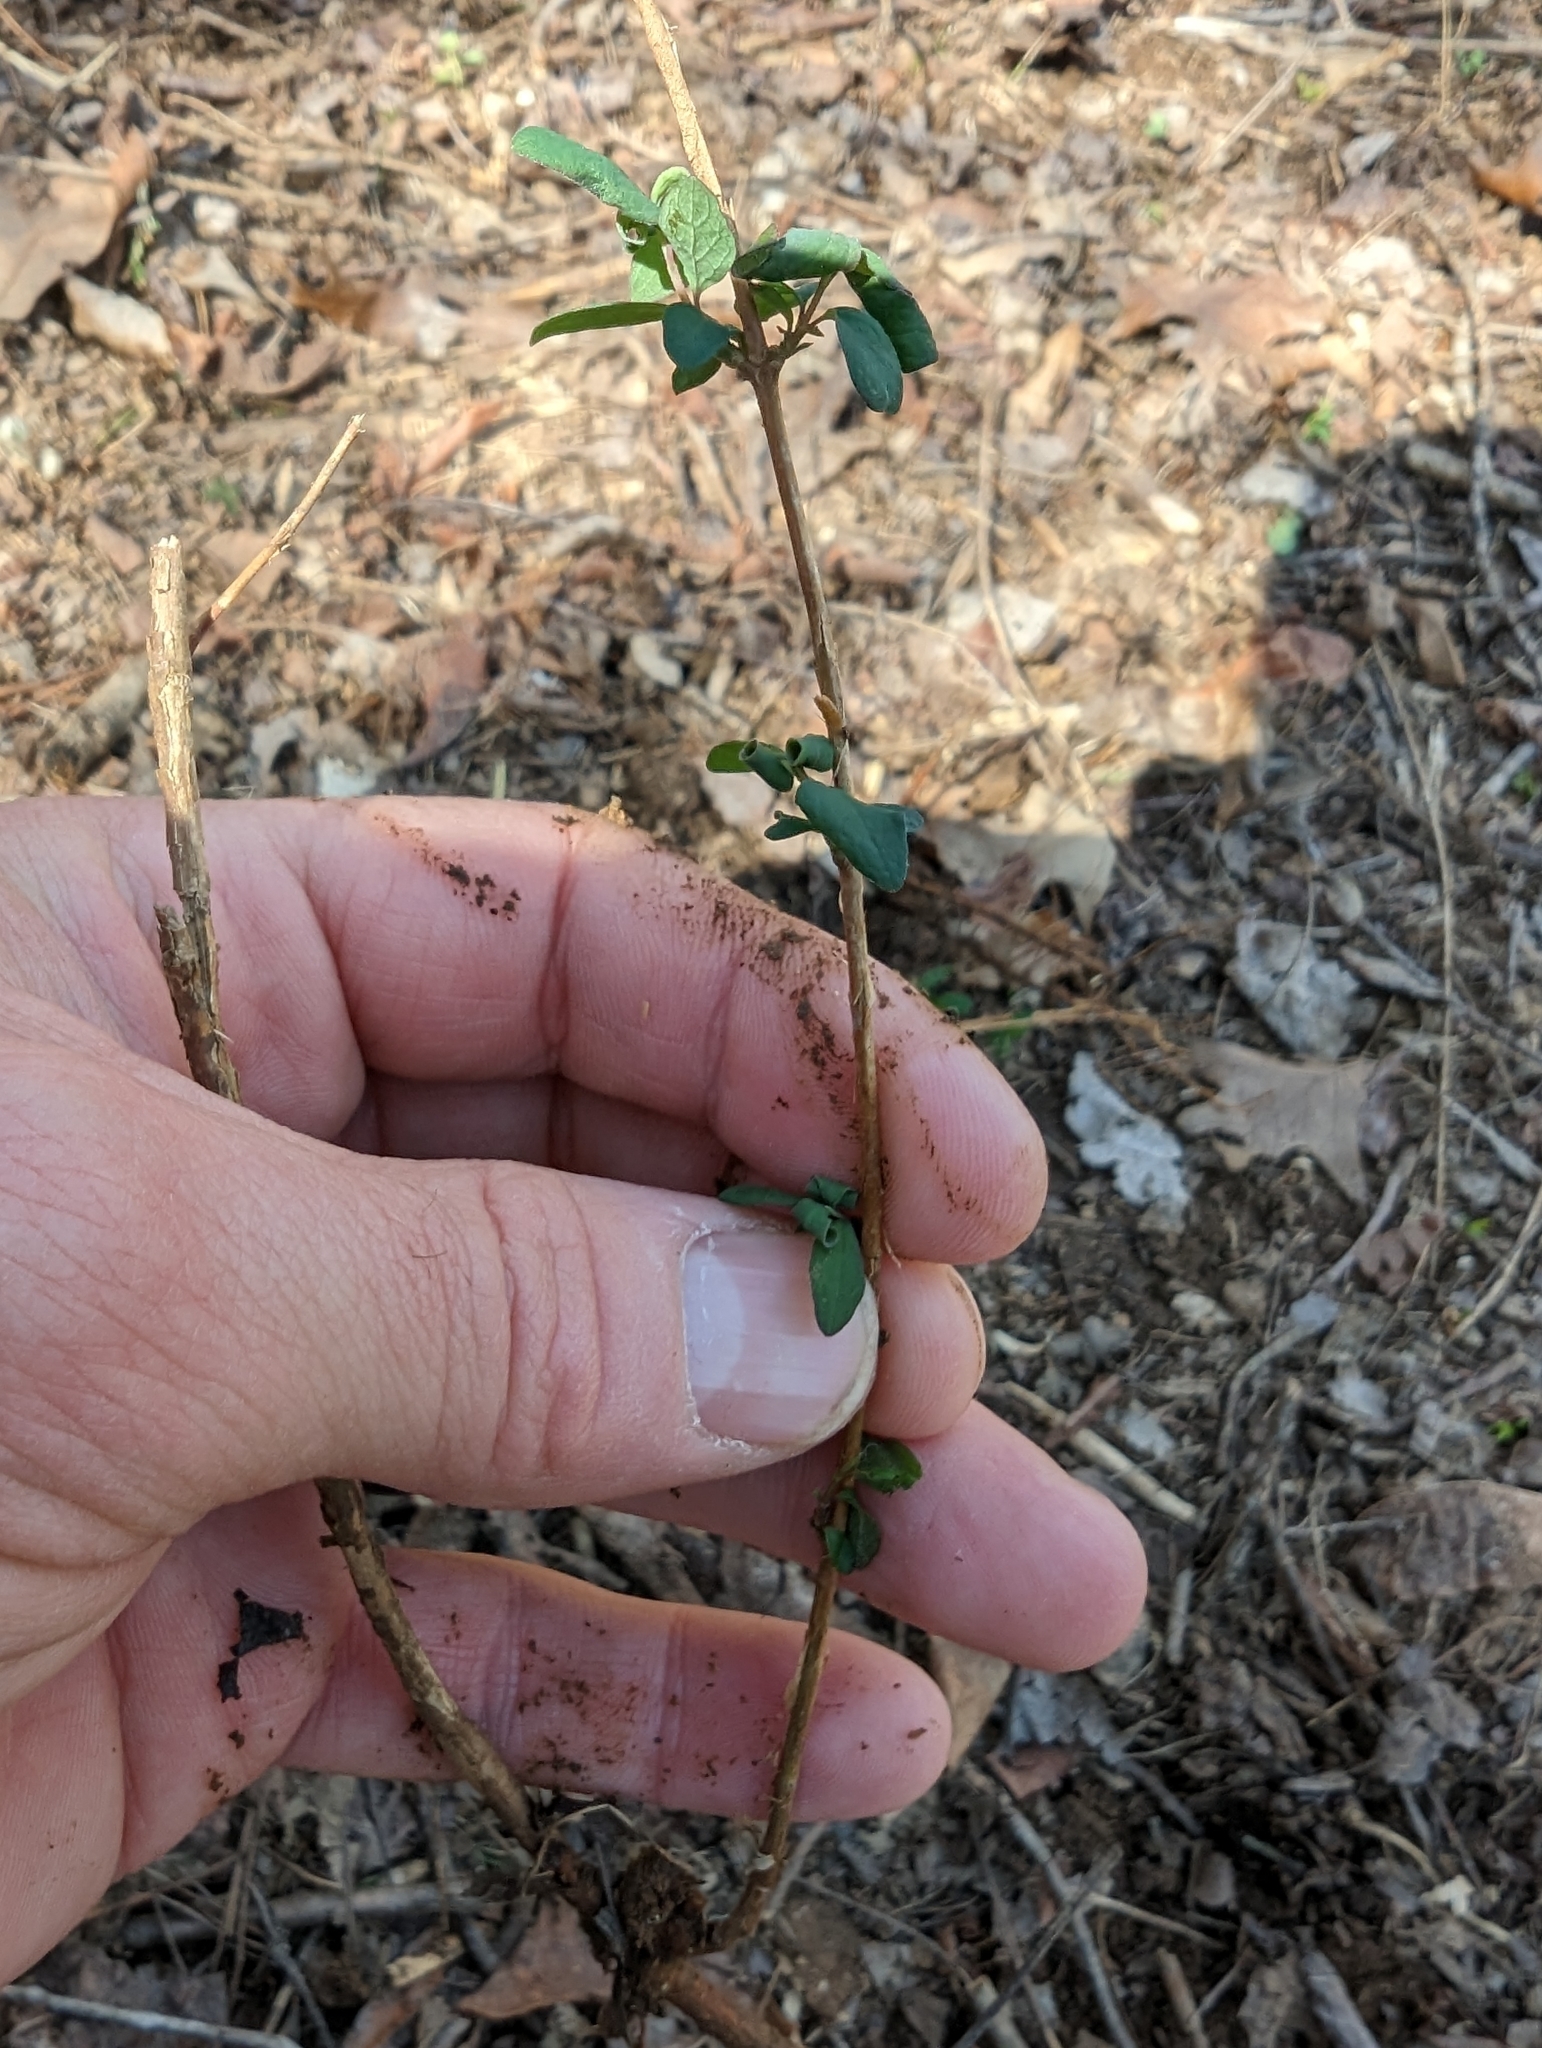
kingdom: Plantae
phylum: Tracheophyta
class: Magnoliopsida
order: Dipsacales
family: Caprifoliaceae
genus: Lonicera
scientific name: Lonicera japonica
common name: Japanese honeysuckle
